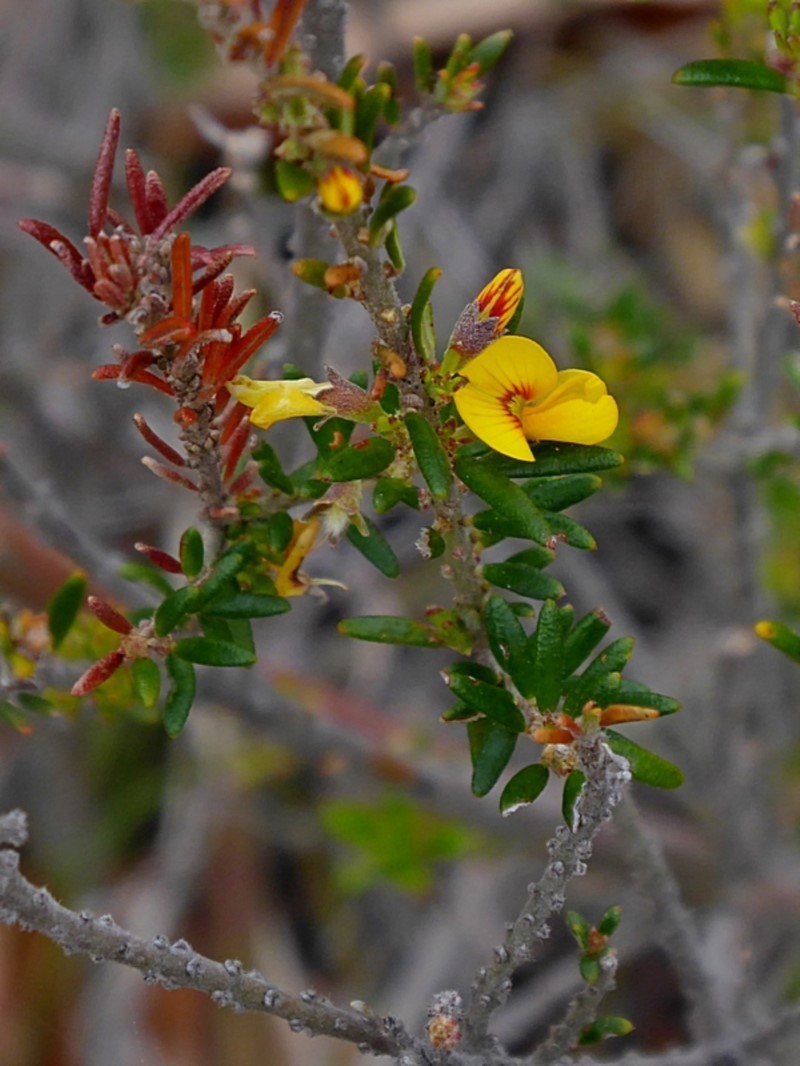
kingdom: Plantae
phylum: Tracheophyta
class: Magnoliopsida
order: Fabales
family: Fabaceae
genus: Aotus
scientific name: Aotus ericoides
